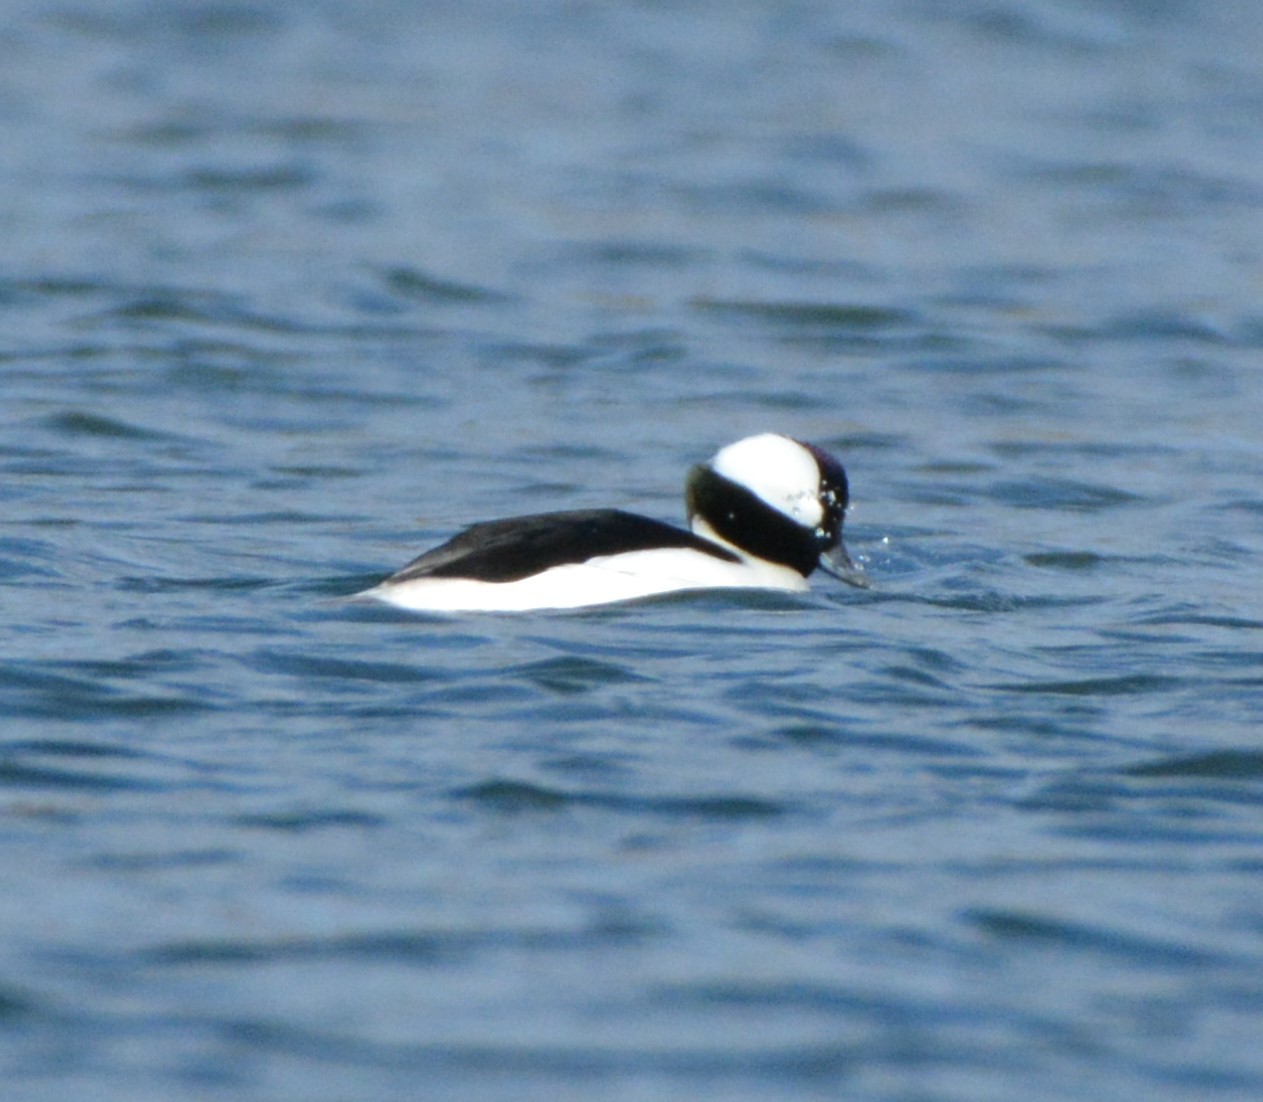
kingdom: Animalia
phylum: Chordata
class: Aves
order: Anseriformes
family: Anatidae
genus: Bucephala
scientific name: Bucephala albeola
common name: Bufflehead
